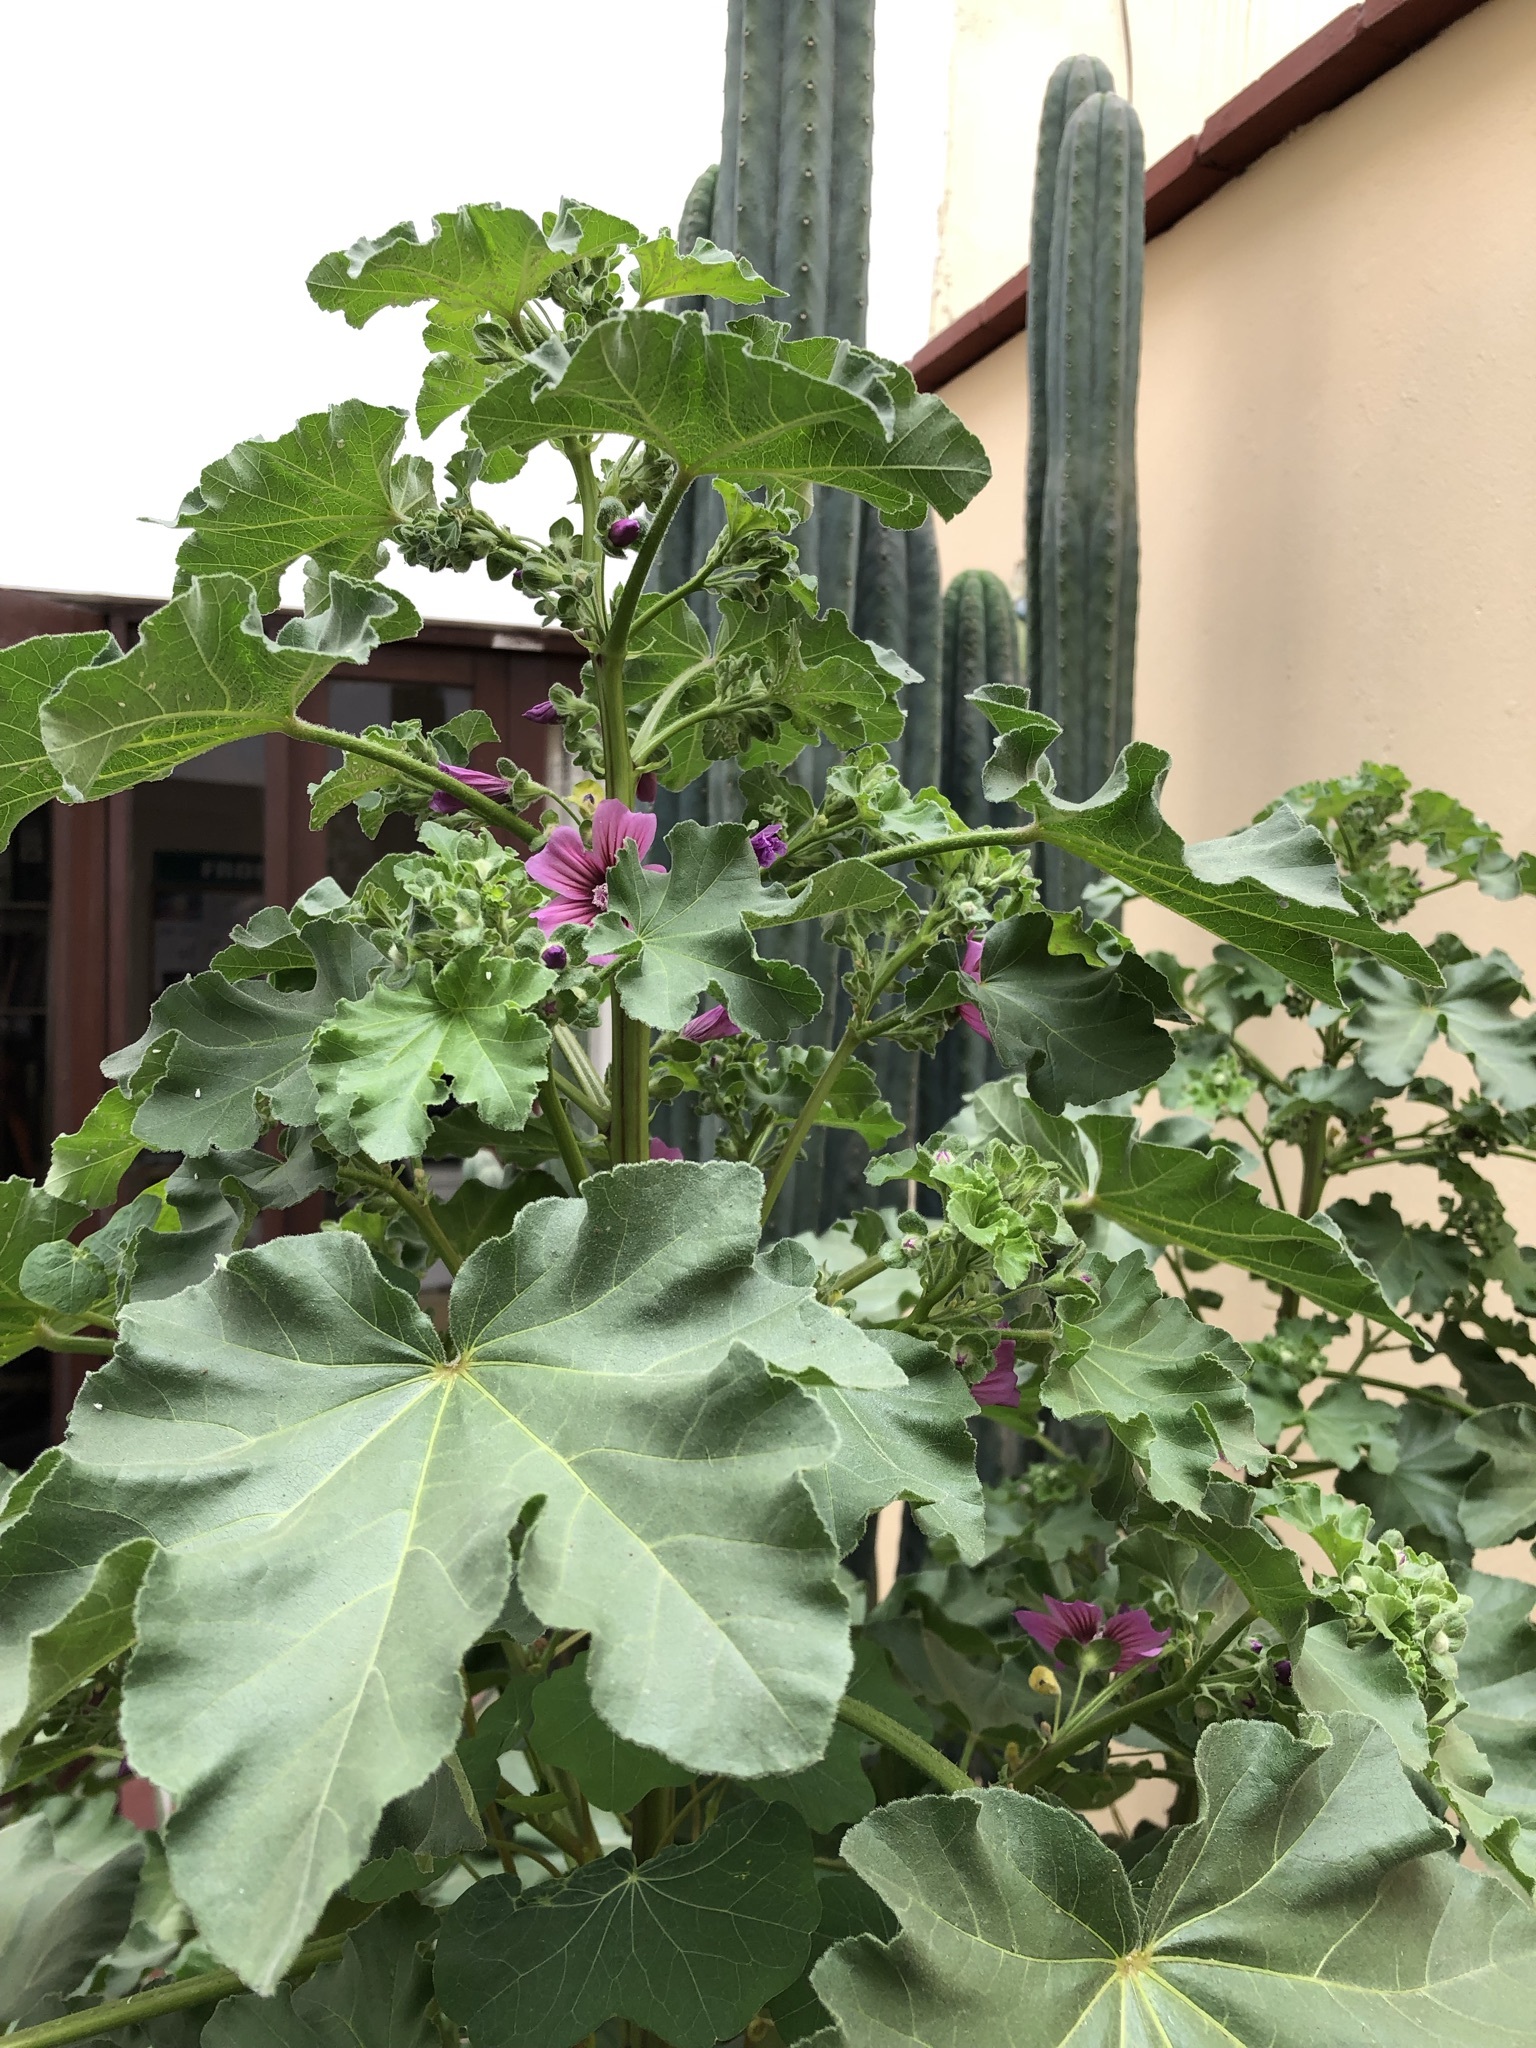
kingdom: Plantae
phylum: Tracheophyta
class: Magnoliopsida
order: Malvales
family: Malvaceae
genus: Malva
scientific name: Malva arborea
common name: Tree mallow
